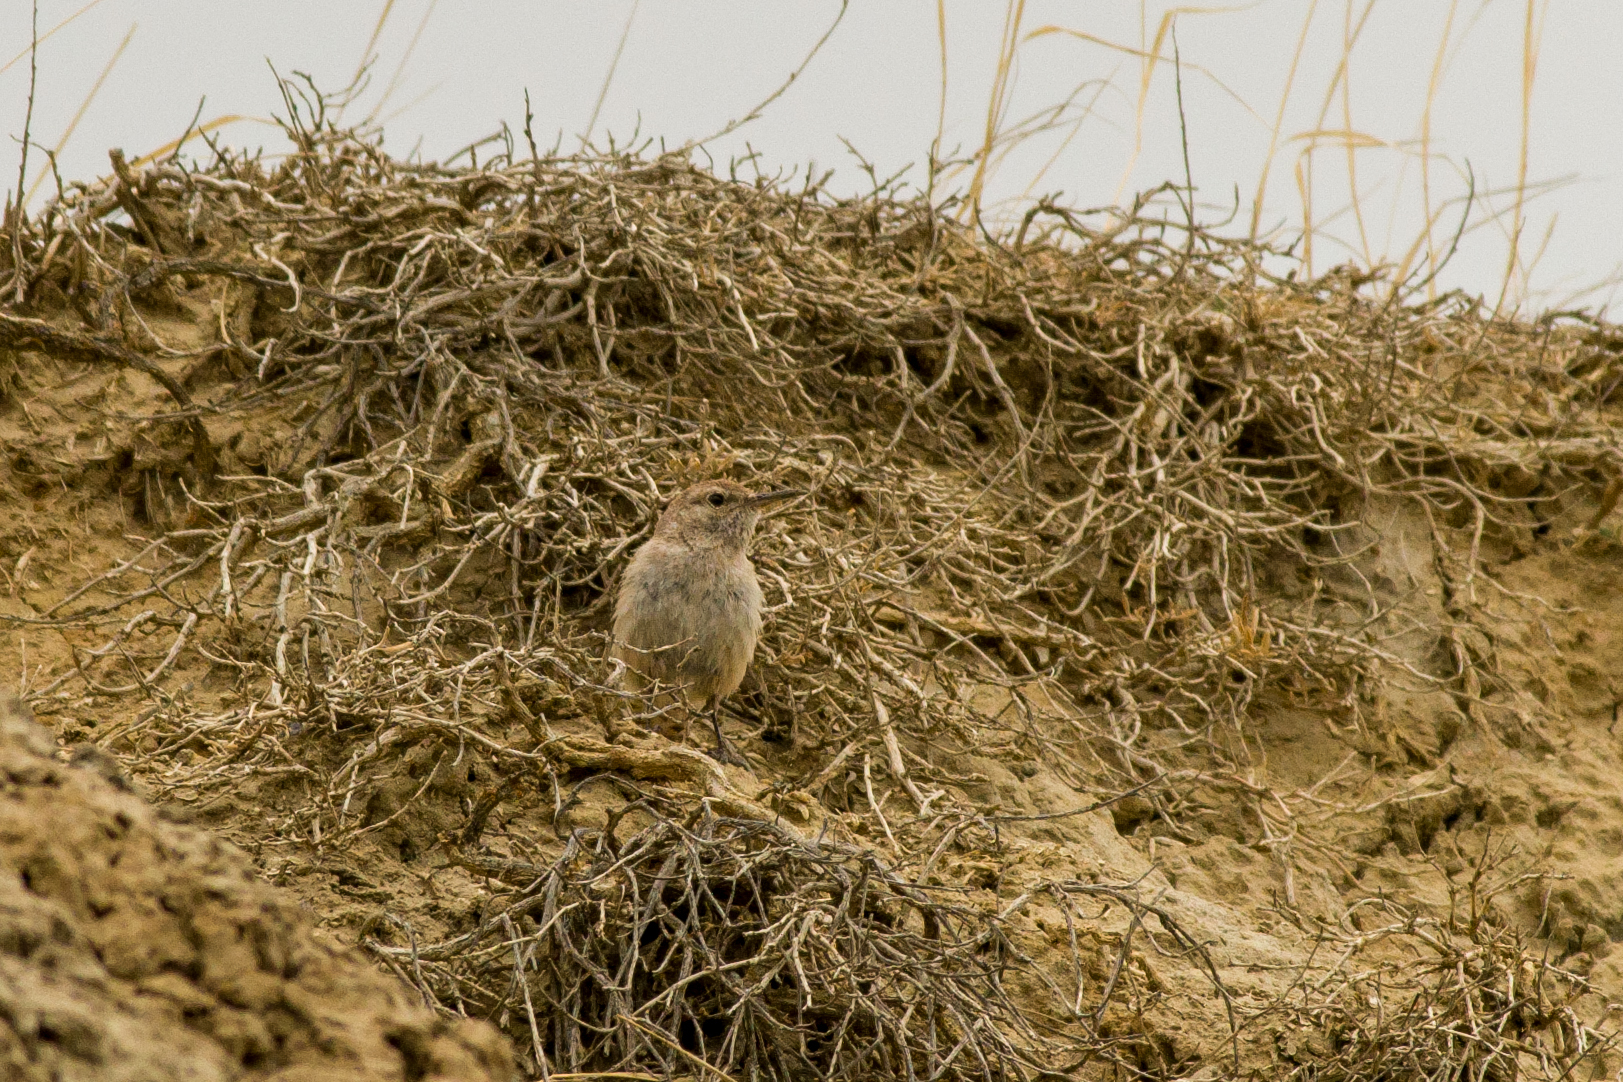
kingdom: Animalia
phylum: Chordata
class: Aves
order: Passeriformes
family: Troglodytidae
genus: Salpinctes
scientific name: Salpinctes obsoletus
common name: Rock wren
